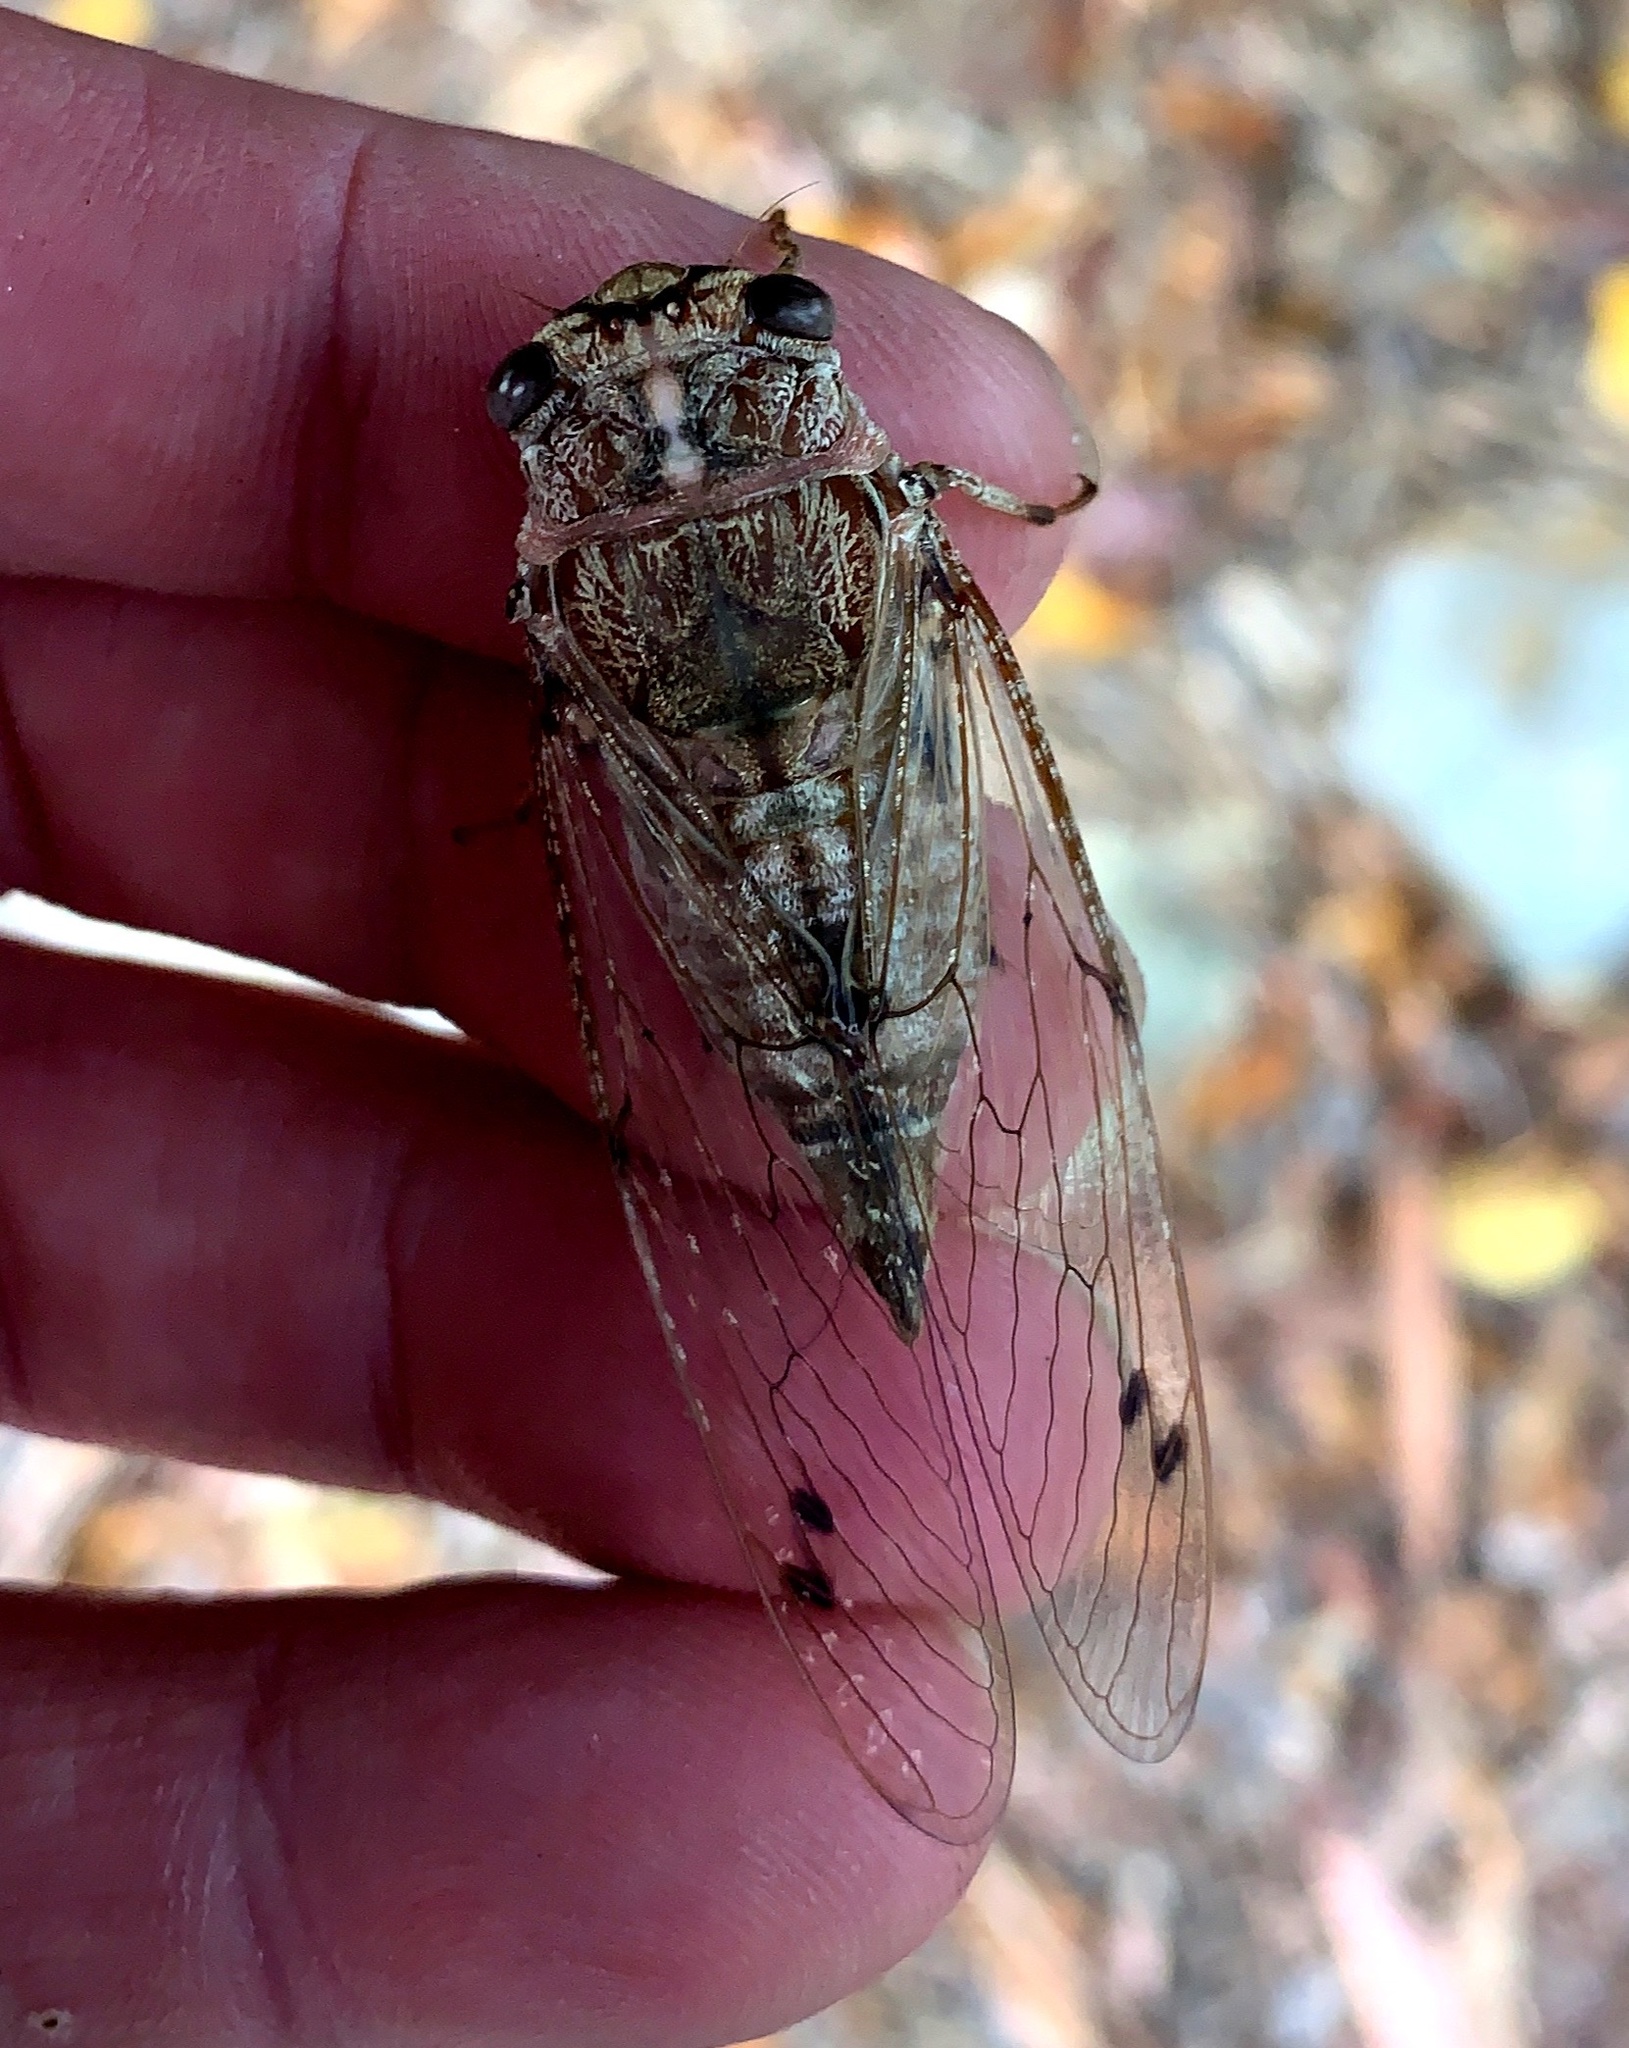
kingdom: Animalia
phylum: Arthropoda
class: Insecta
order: Hemiptera
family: Cicadidae
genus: Aleeta
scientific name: Aleeta curvicosta
